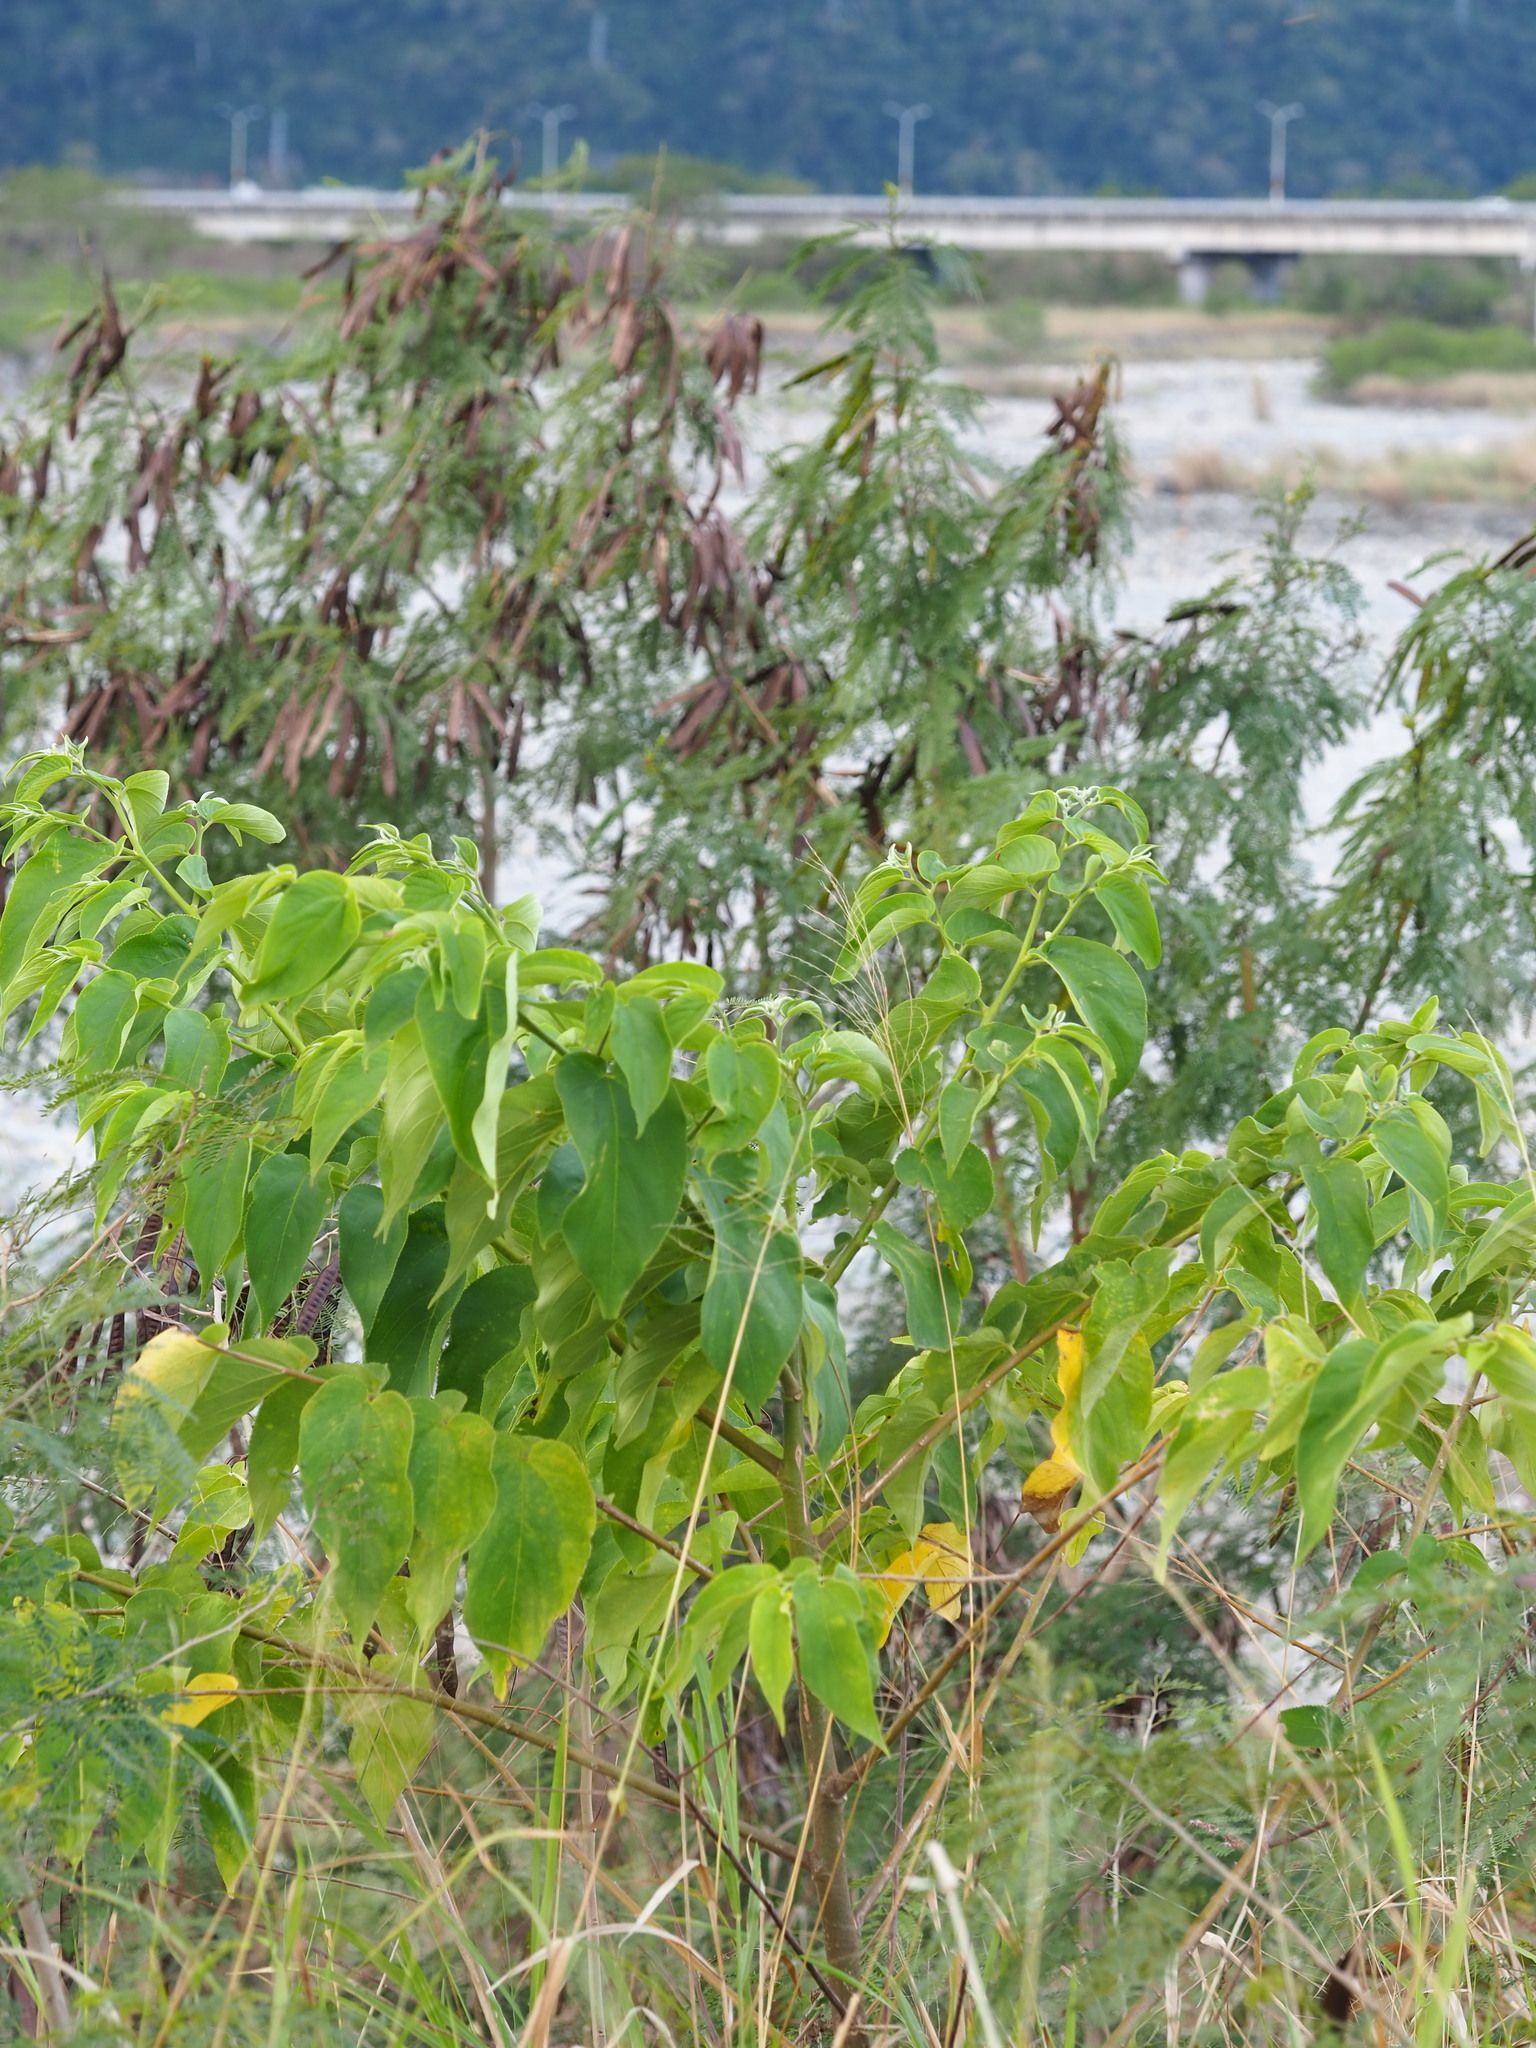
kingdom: Plantae
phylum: Tracheophyta
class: Magnoliopsida
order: Rosales
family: Cannabaceae
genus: Trema
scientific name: Trema orientale
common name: Indian charcoal tree
